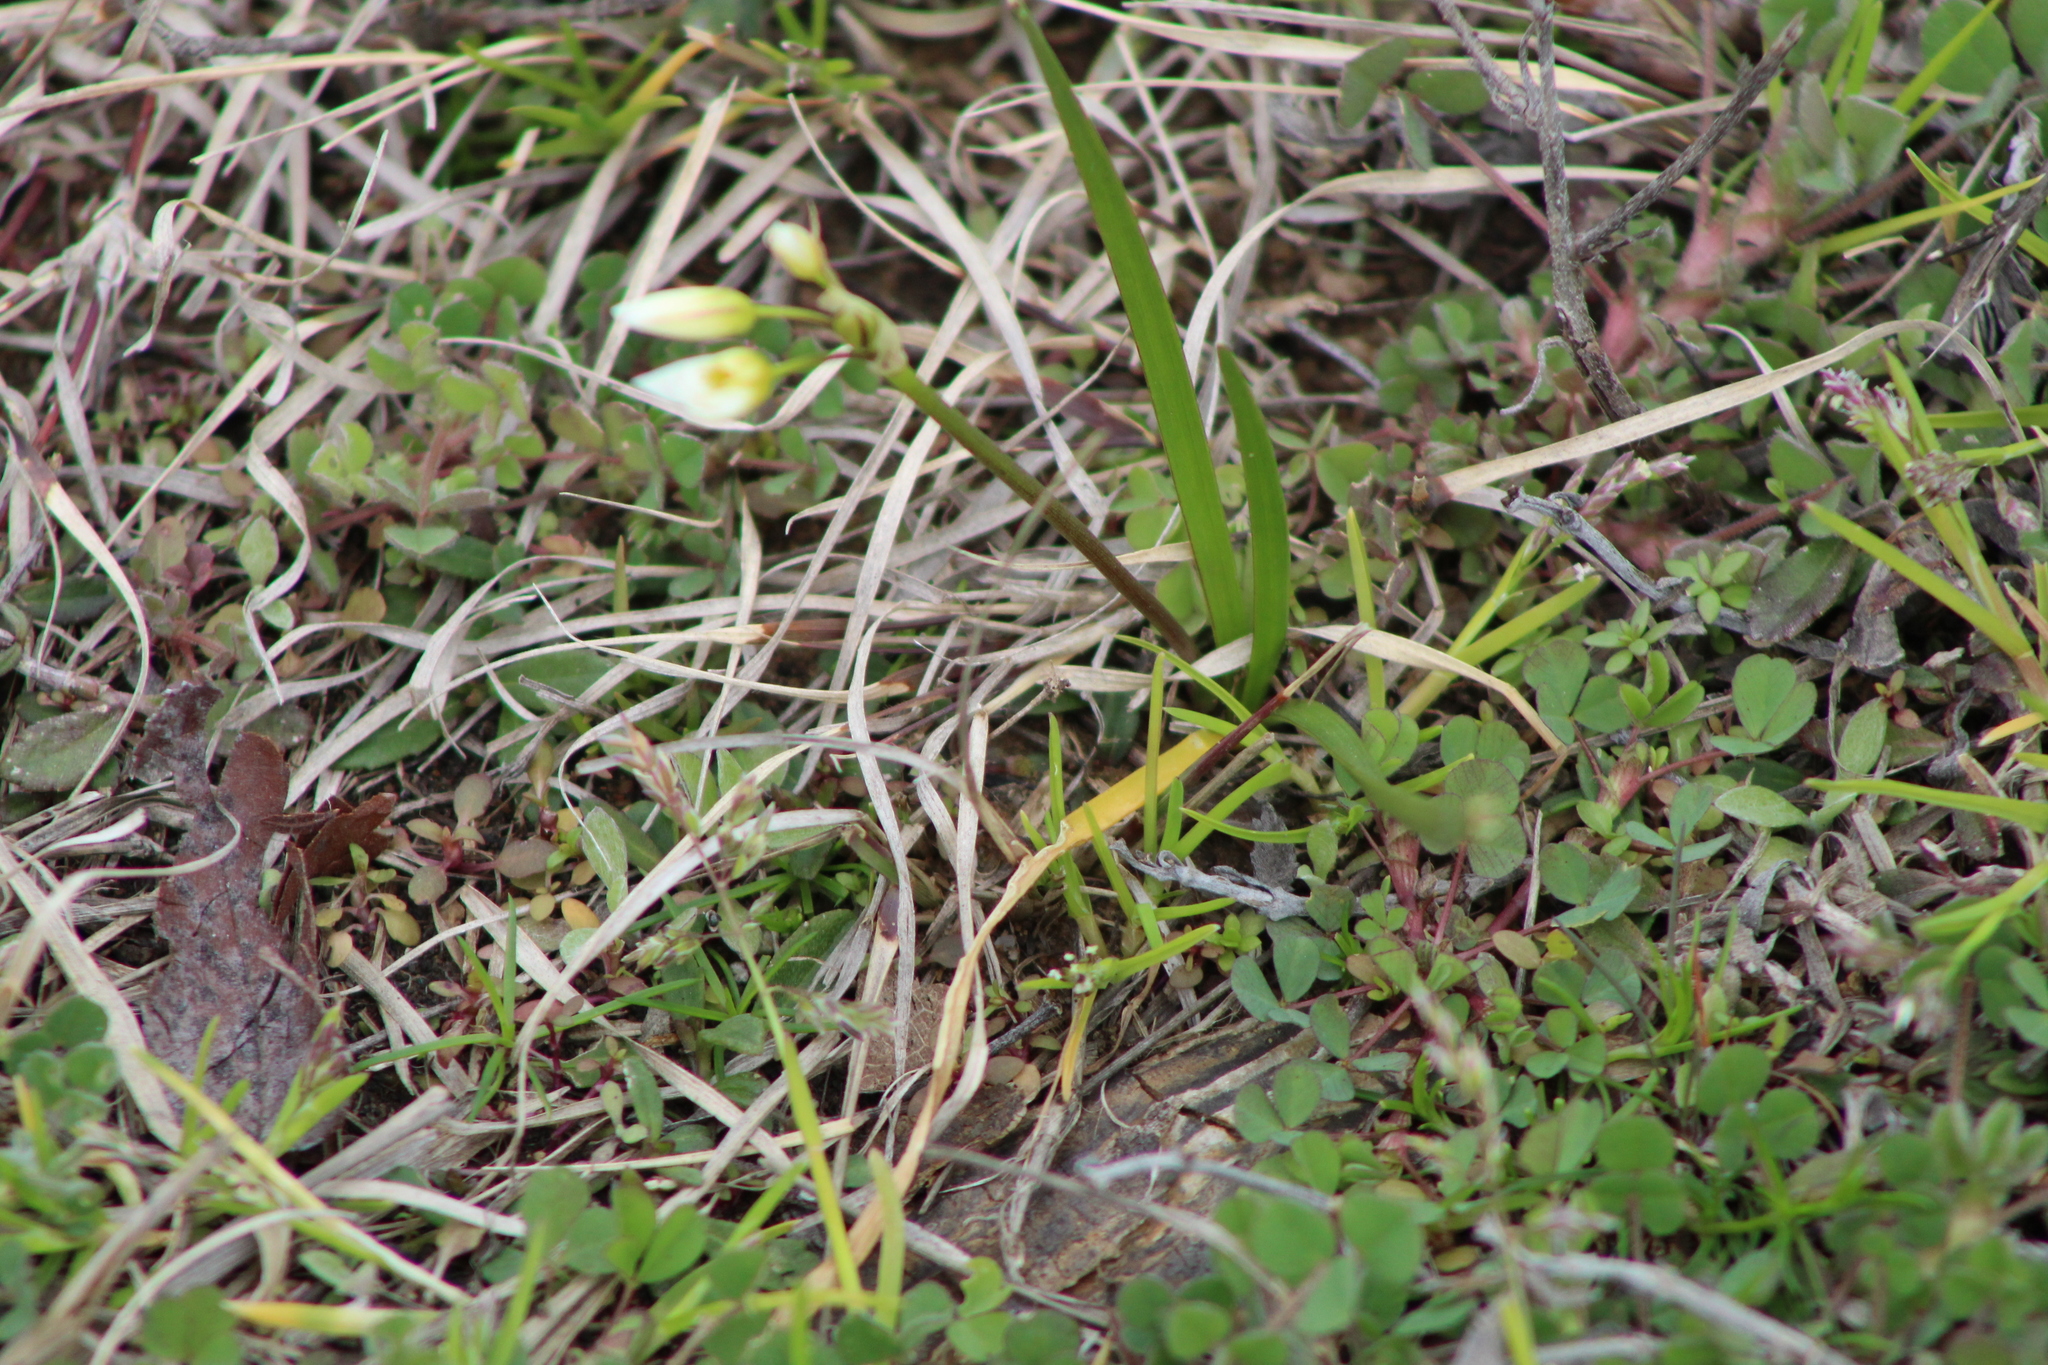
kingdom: Plantae
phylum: Tracheophyta
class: Liliopsida
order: Asparagales
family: Amaryllidaceae
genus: Nothoscordum
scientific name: Nothoscordum bivalve
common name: Crow-poison
